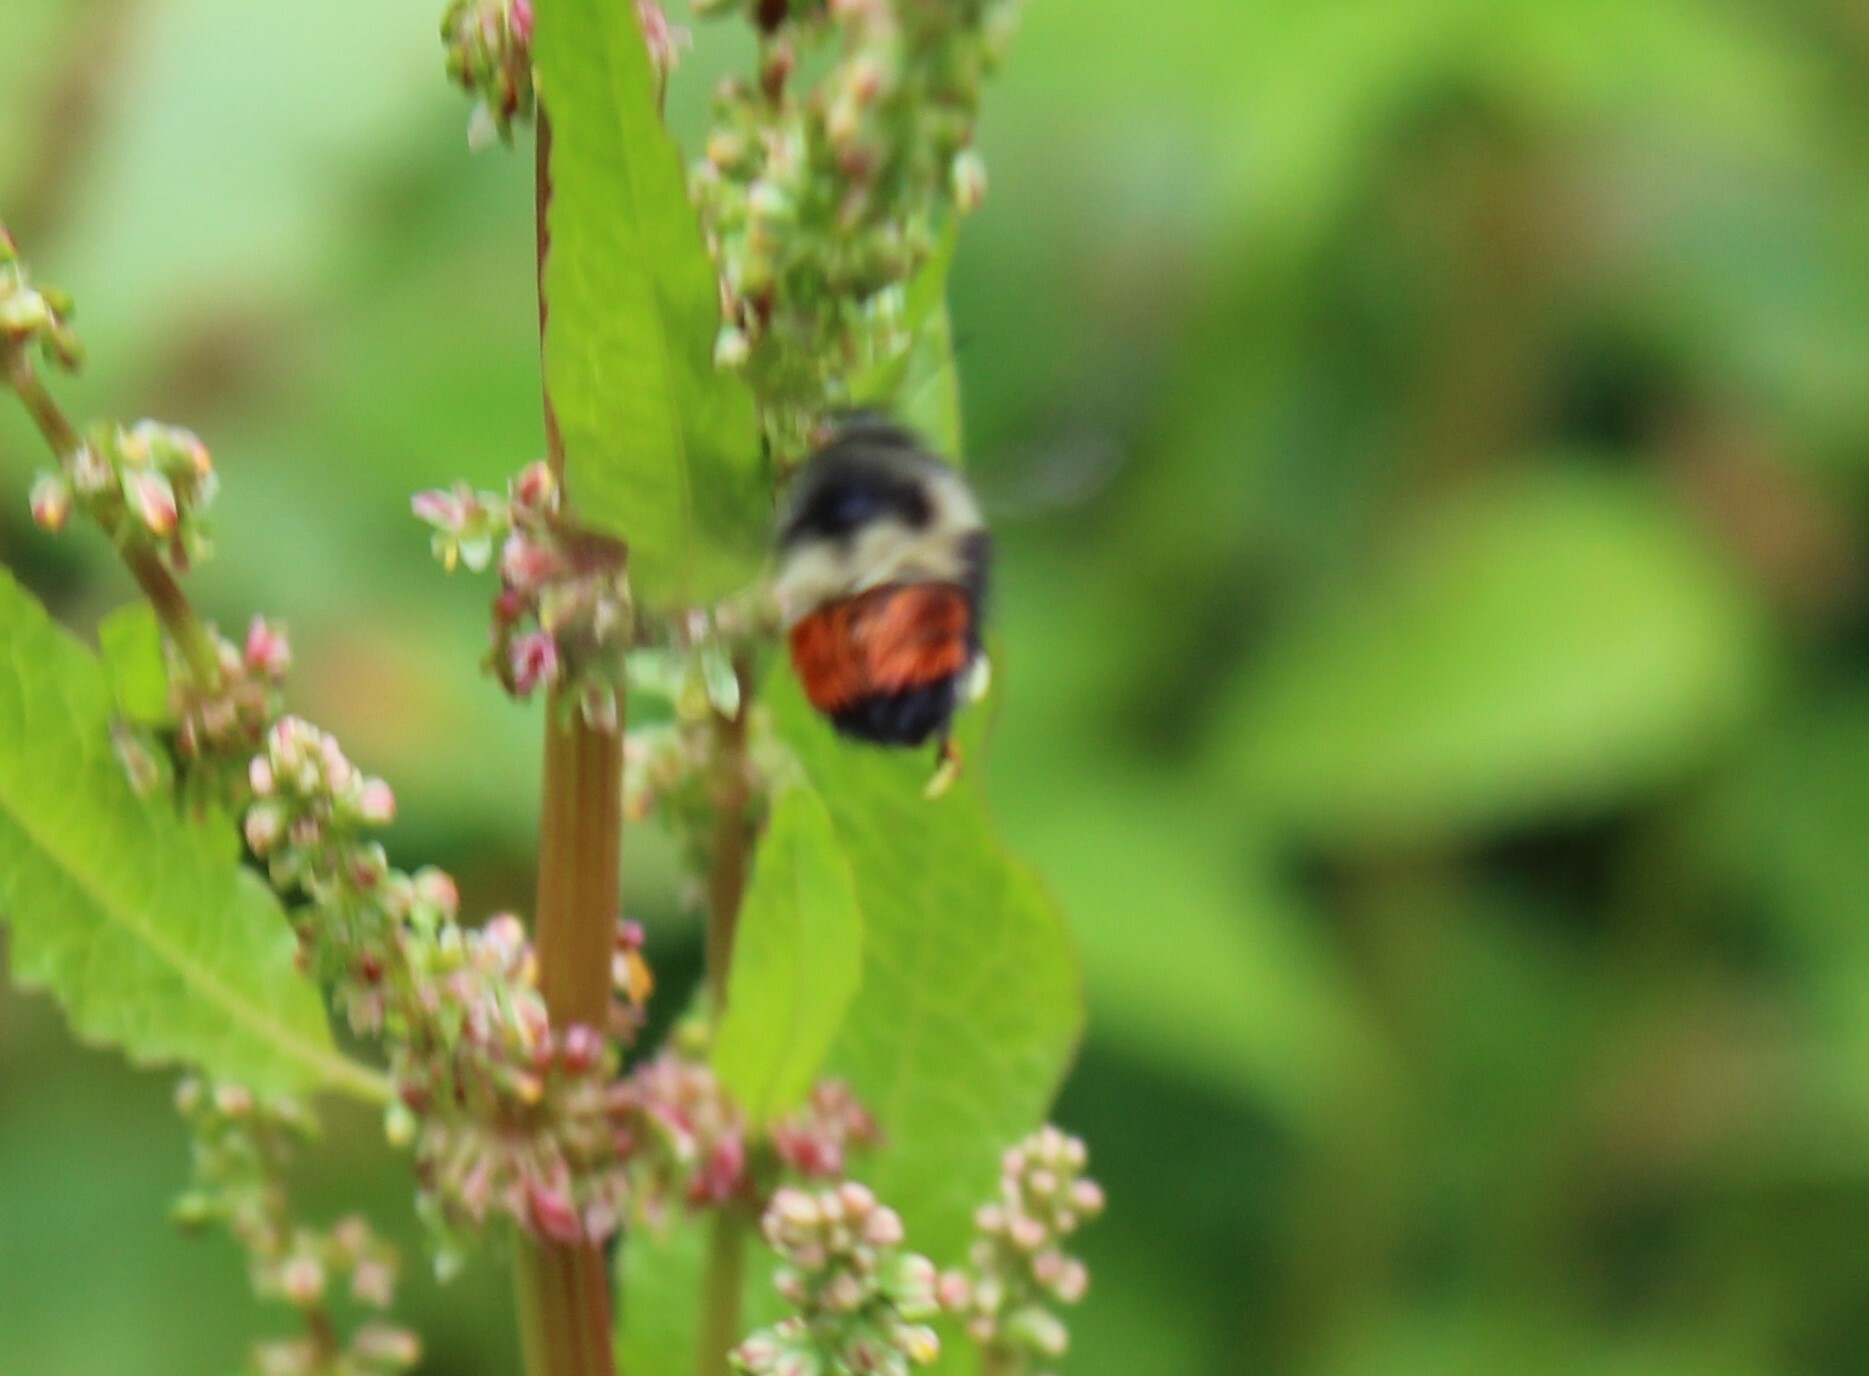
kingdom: Animalia
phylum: Arthropoda
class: Insecta
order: Hymenoptera
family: Apidae
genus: Bombus
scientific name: Bombus melanopygus
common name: Black tail bumble bee
